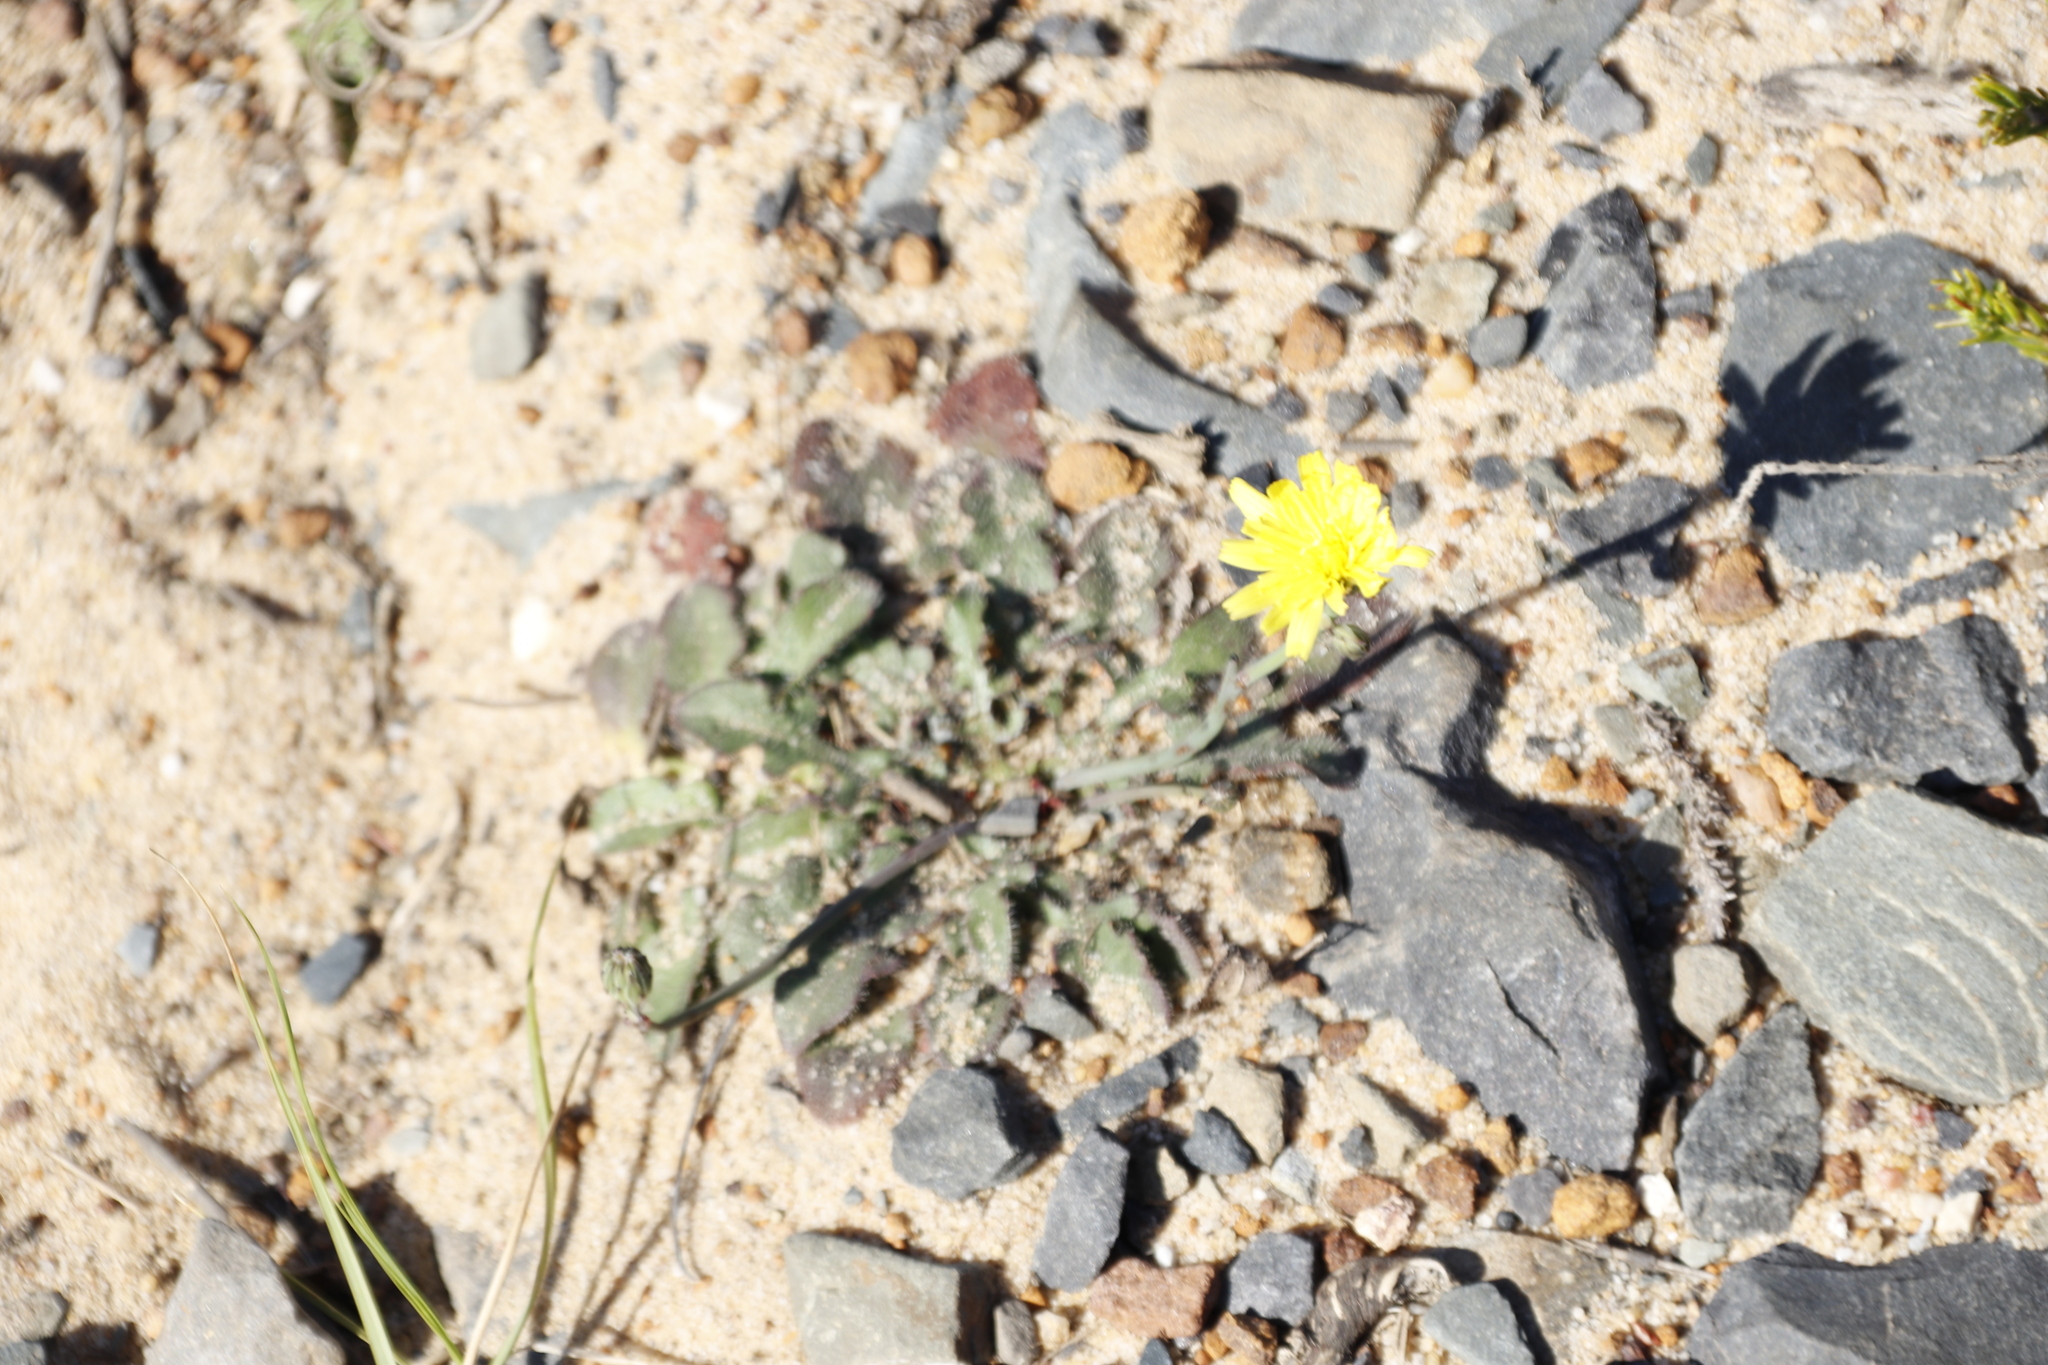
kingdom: Plantae
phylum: Tracheophyta
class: Magnoliopsida
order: Asterales
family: Asteraceae
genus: Hypochaeris
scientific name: Hypochaeris radicata
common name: Flatweed
